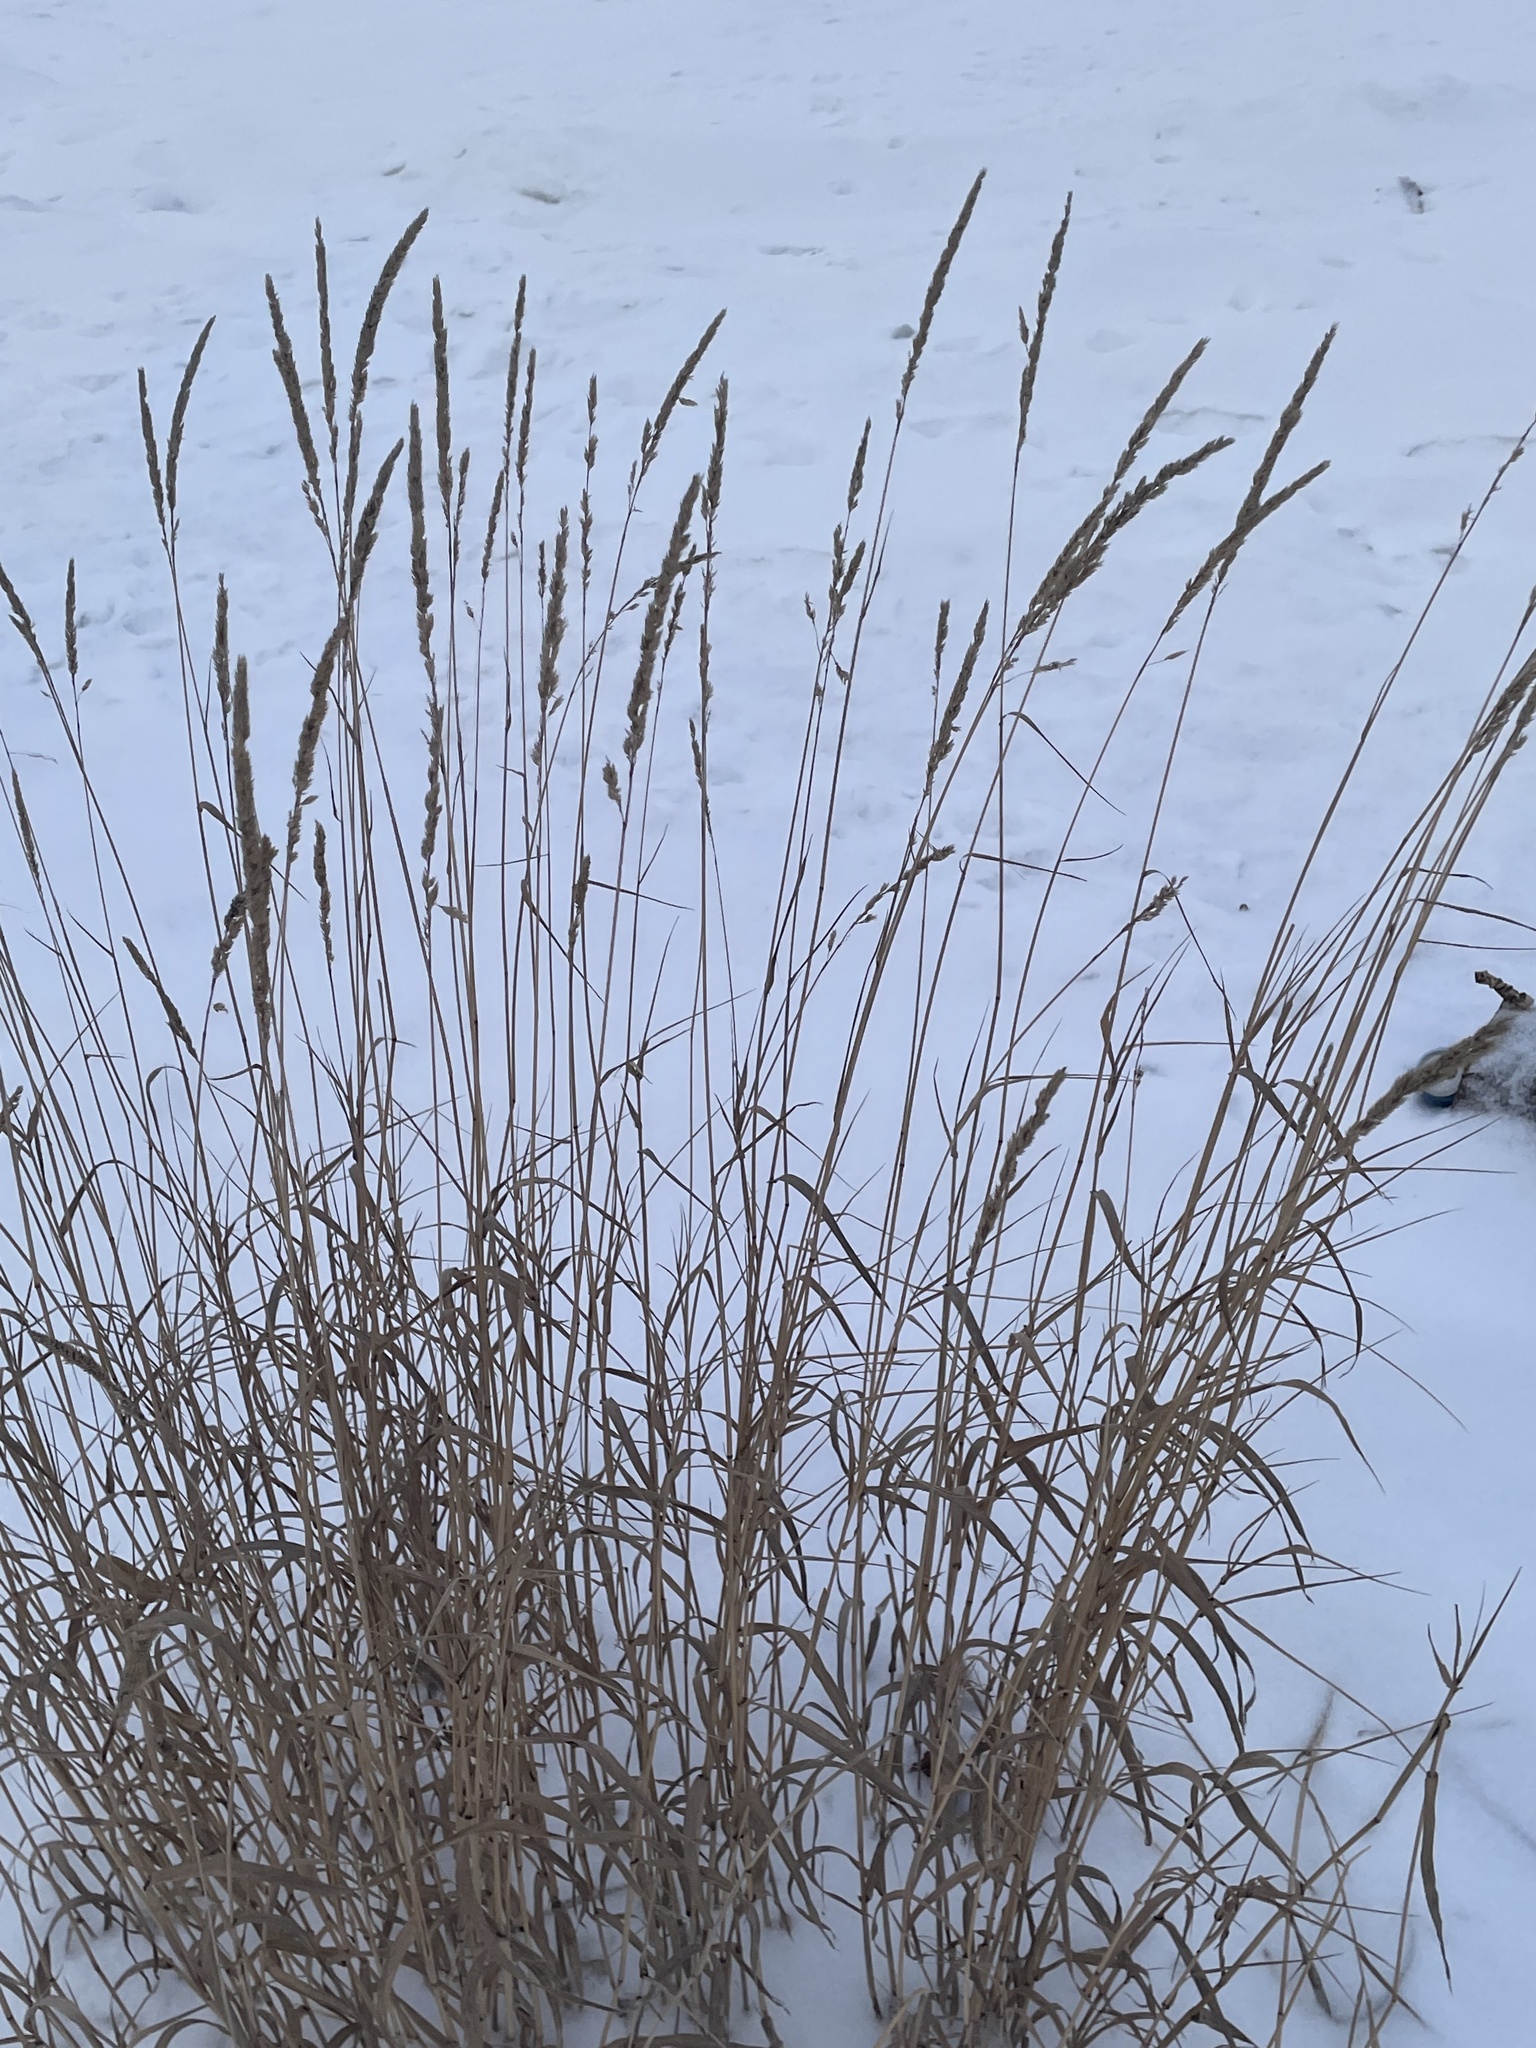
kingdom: Plantae
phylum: Tracheophyta
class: Liliopsida
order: Poales
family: Poaceae
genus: Phalaris
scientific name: Phalaris arundinacea
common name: Reed canary-grass
